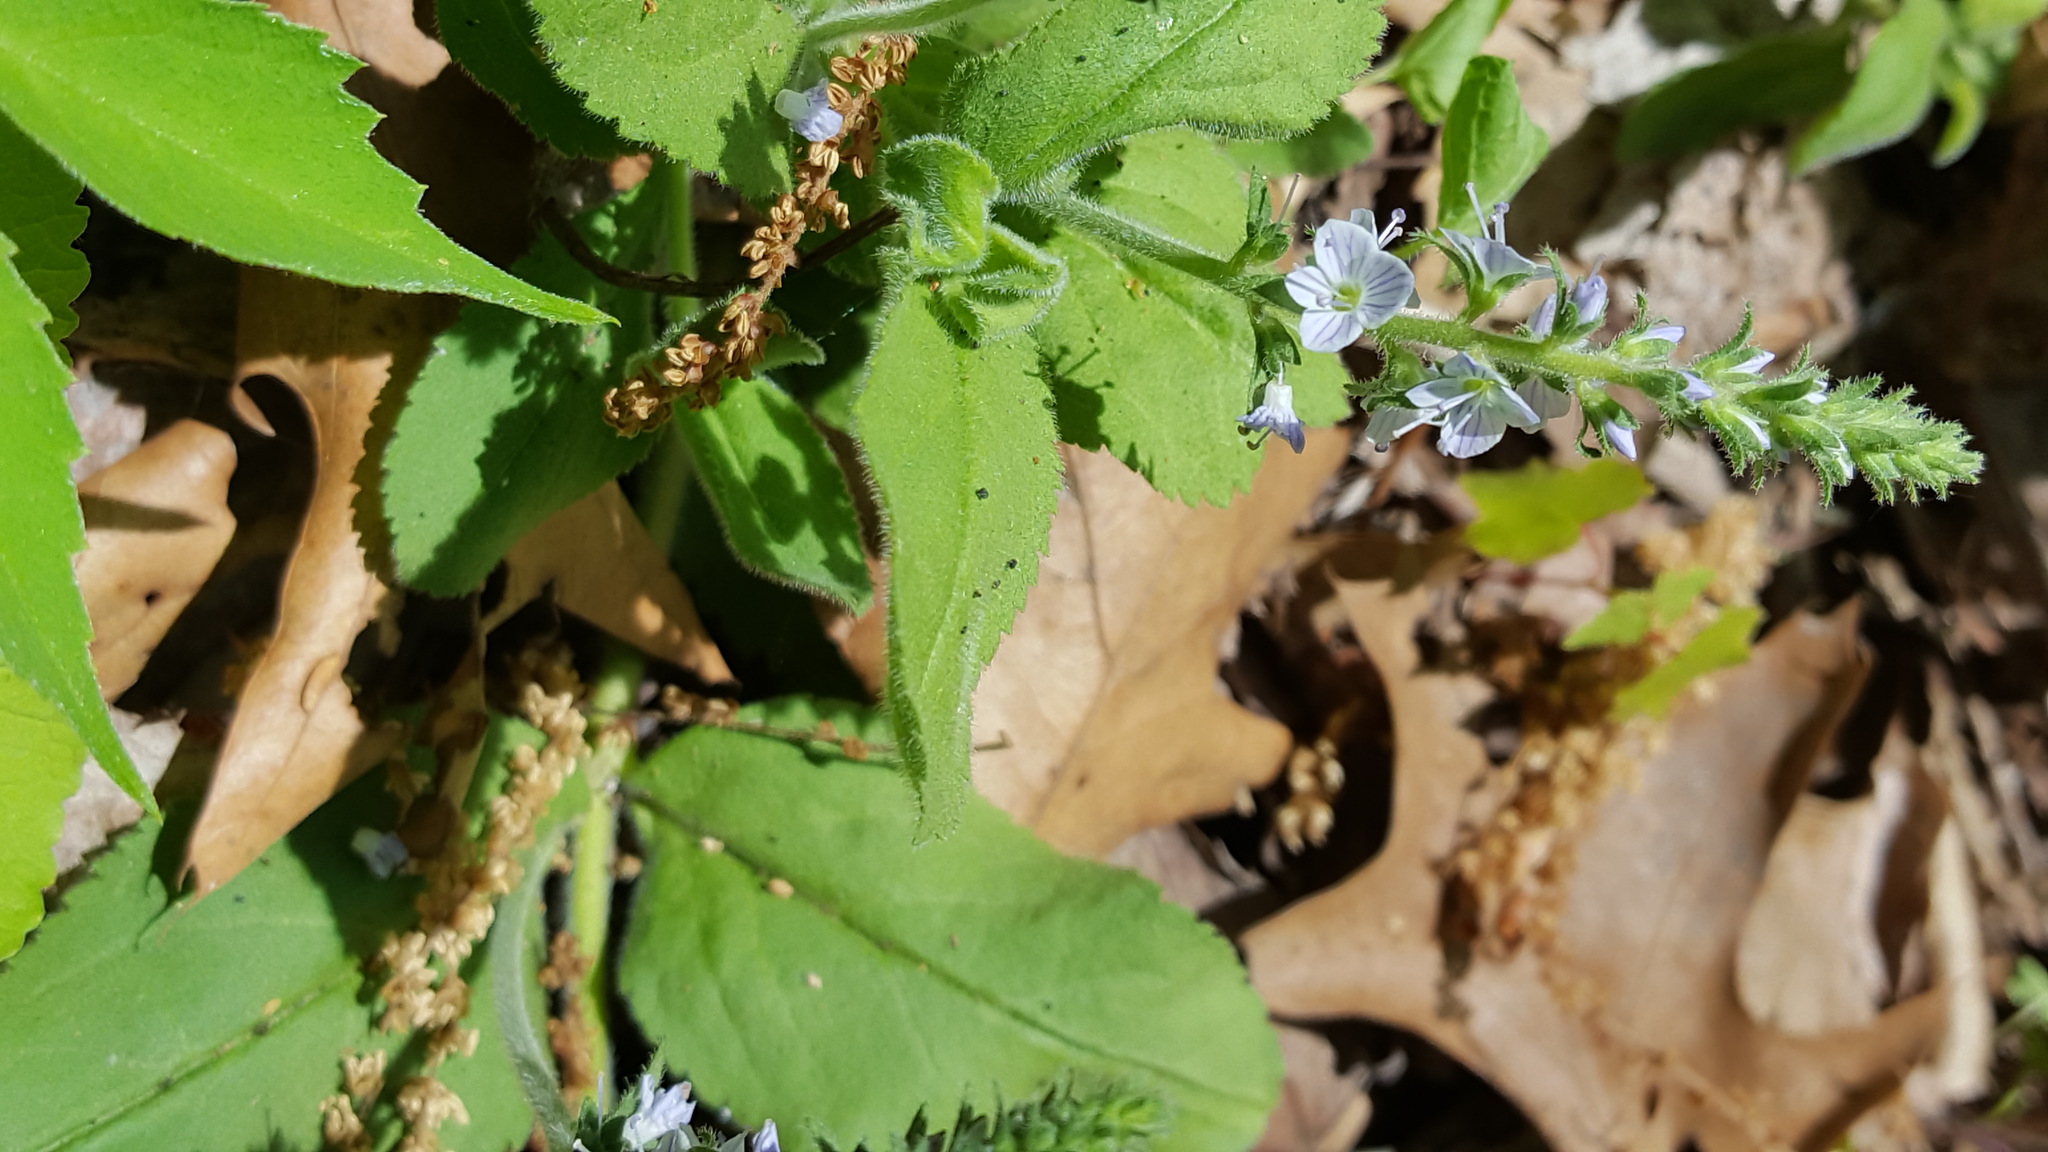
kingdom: Plantae
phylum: Tracheophyta
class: Magnoliopsida
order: Lamiales
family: Plantaginaceae
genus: Veronica
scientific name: Veronica officinalis
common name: Common speedwell
